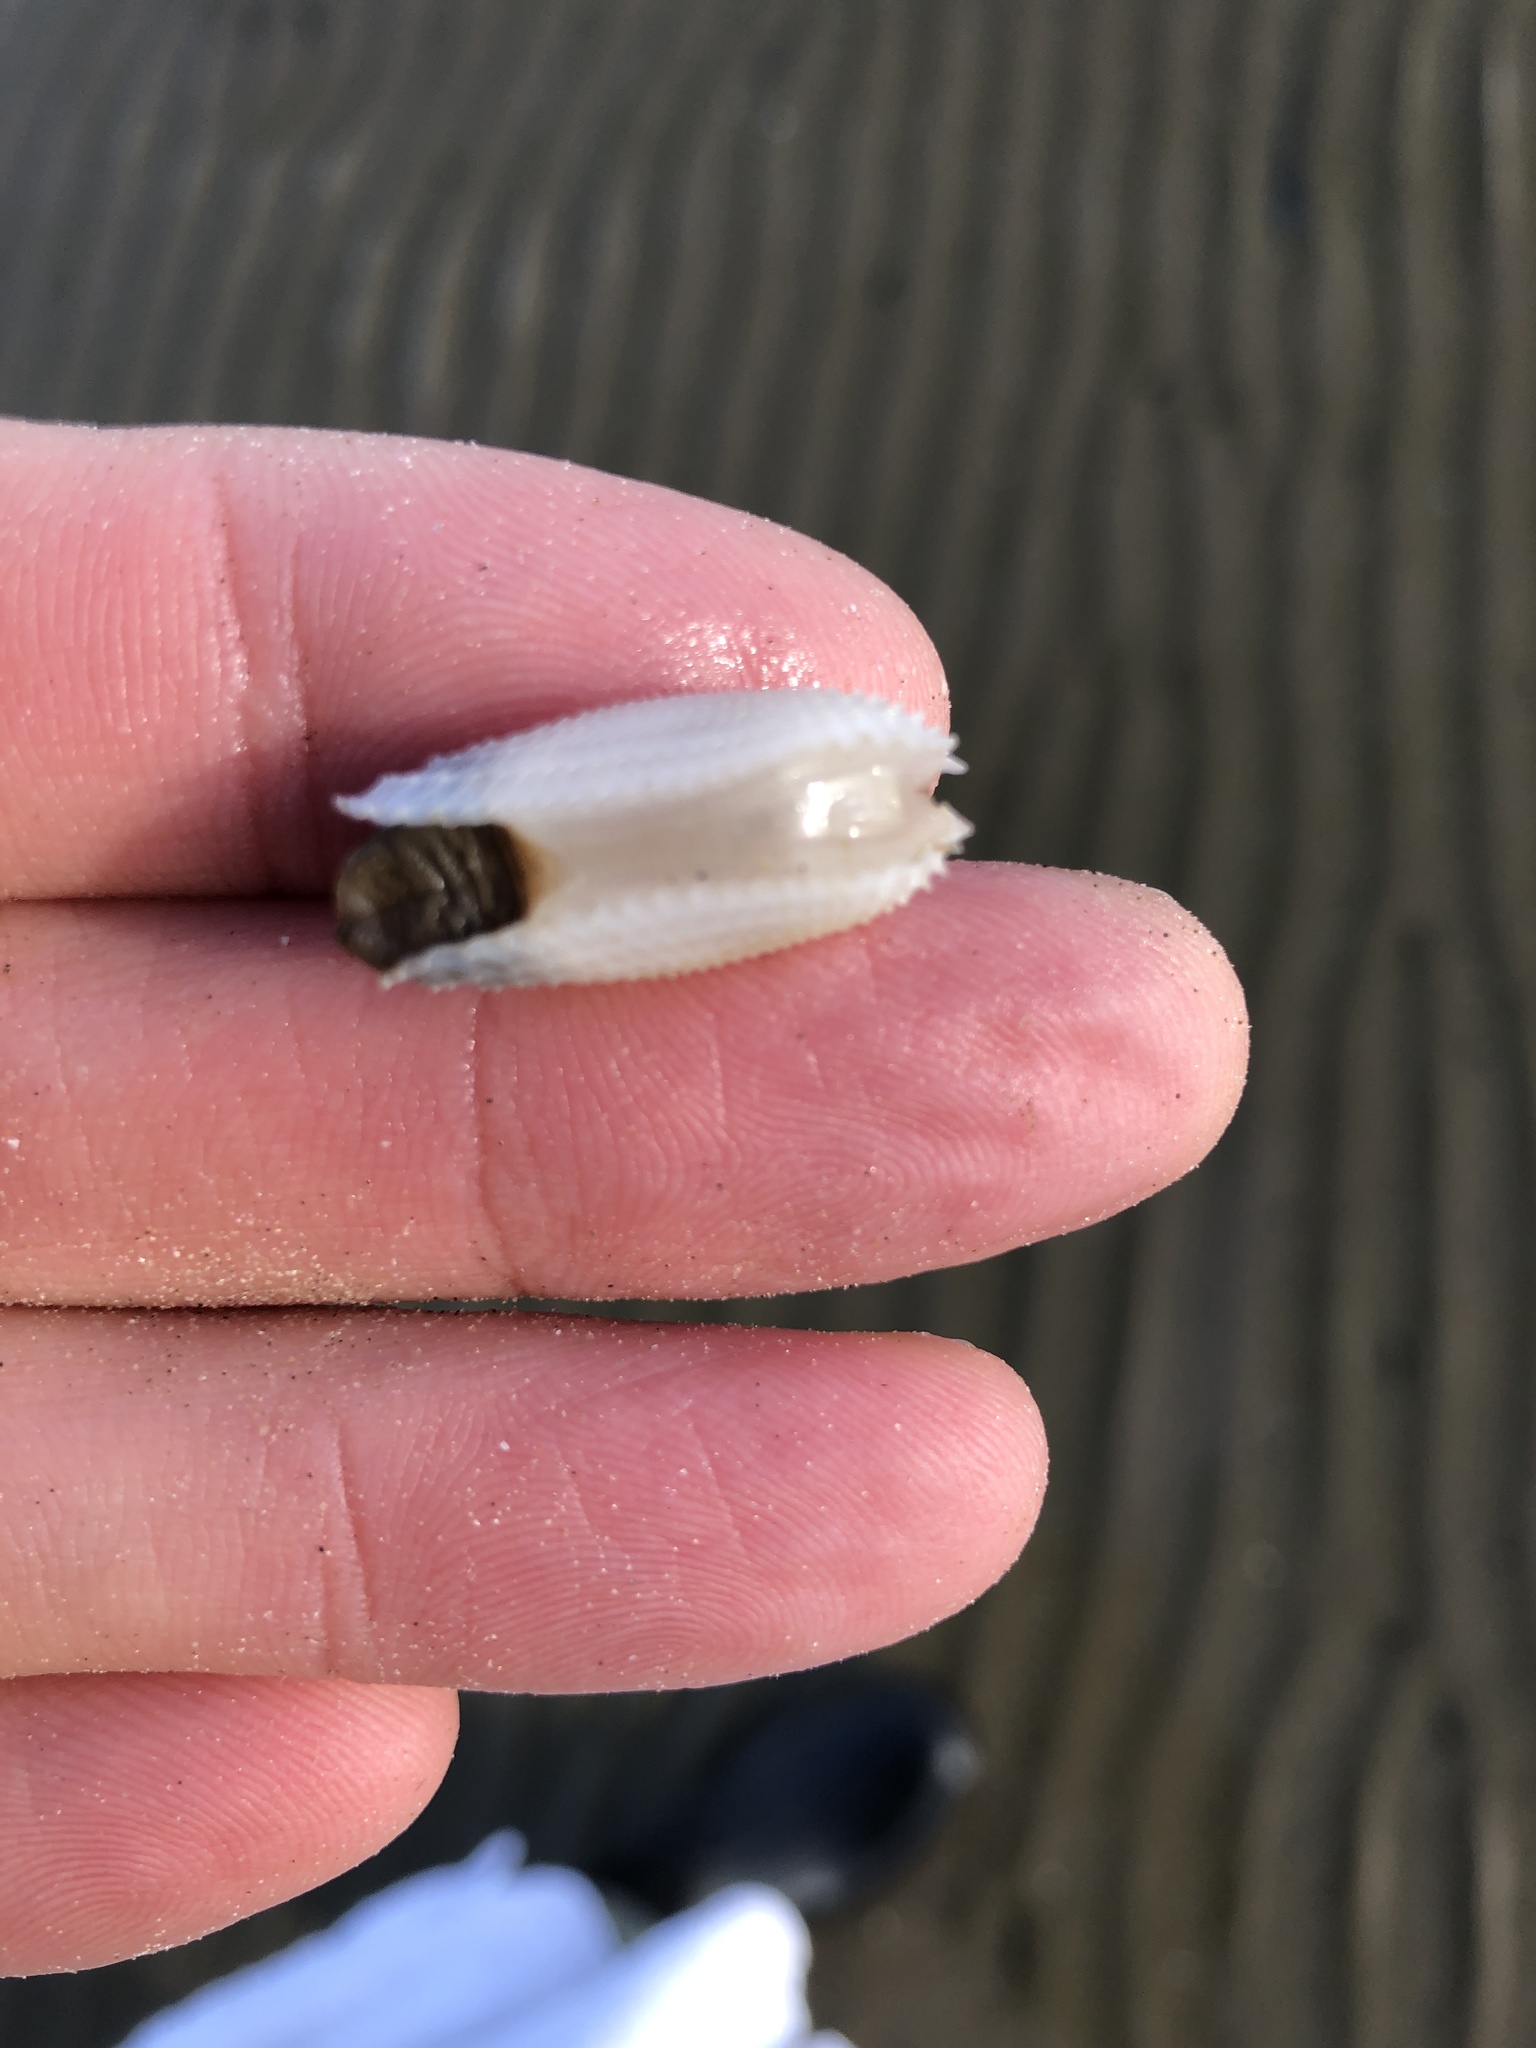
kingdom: Animalia
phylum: Mollusca
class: Bivalvia
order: Myida
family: Pholadidae
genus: Cyrtopleura
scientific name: Cyrtopleura costata
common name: Angel wing
